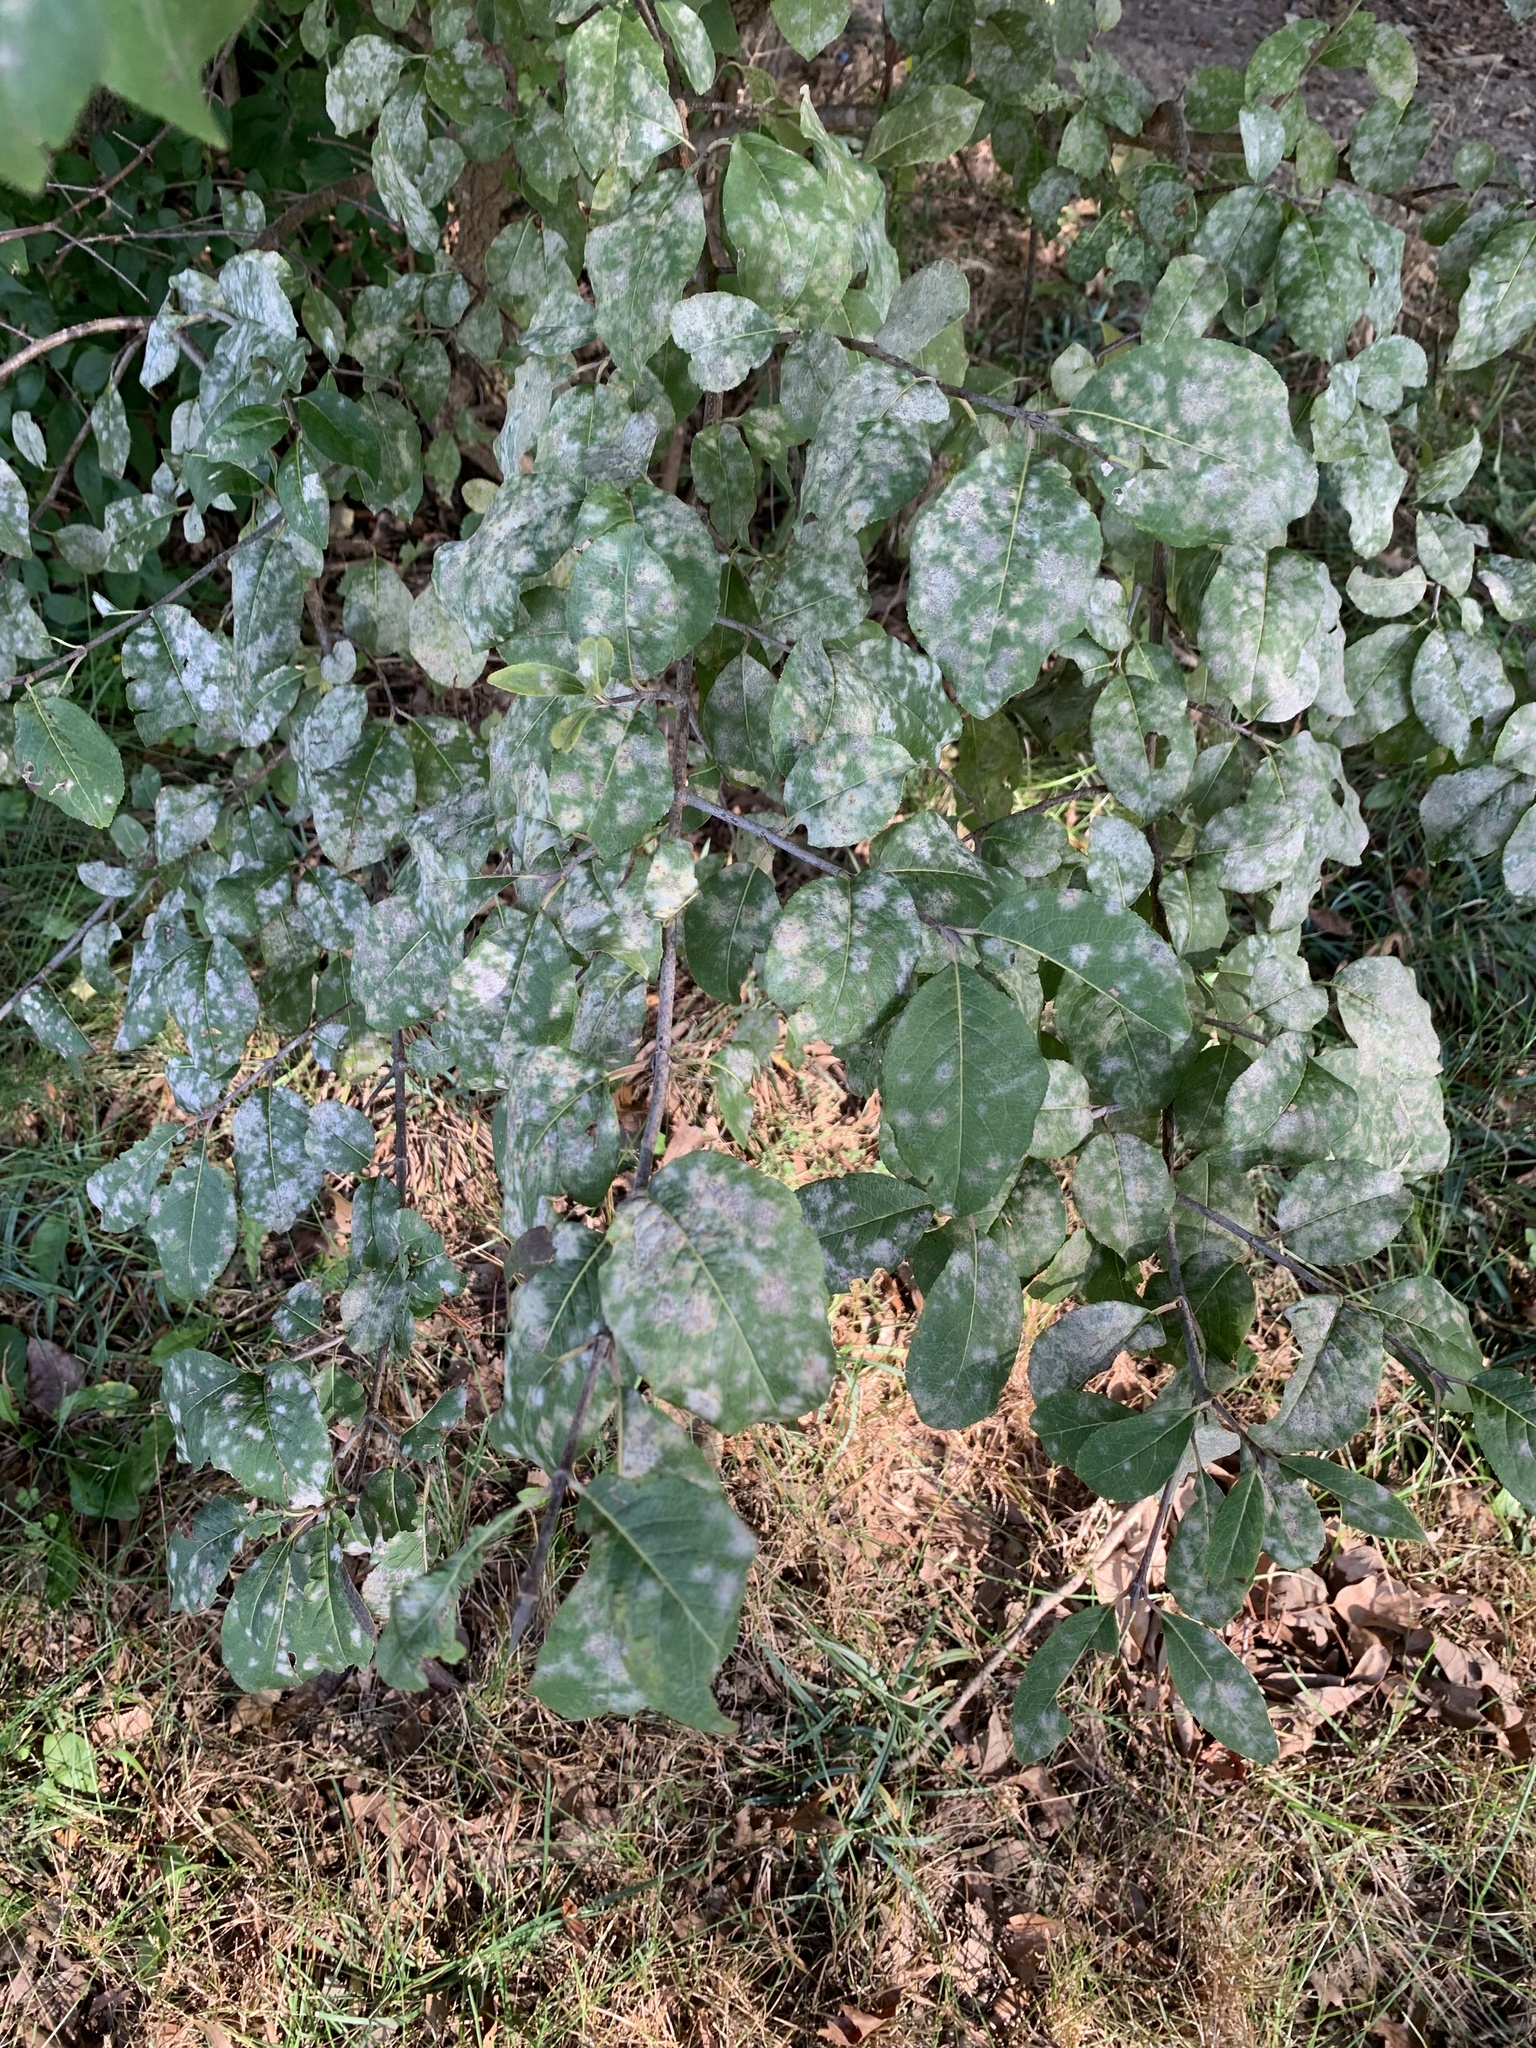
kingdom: Fungi
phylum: Ascomycota
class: Leotiomycetes
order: Helotiales
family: Erysiphaceae
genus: Erysiphe
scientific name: Erysiphe viburni
